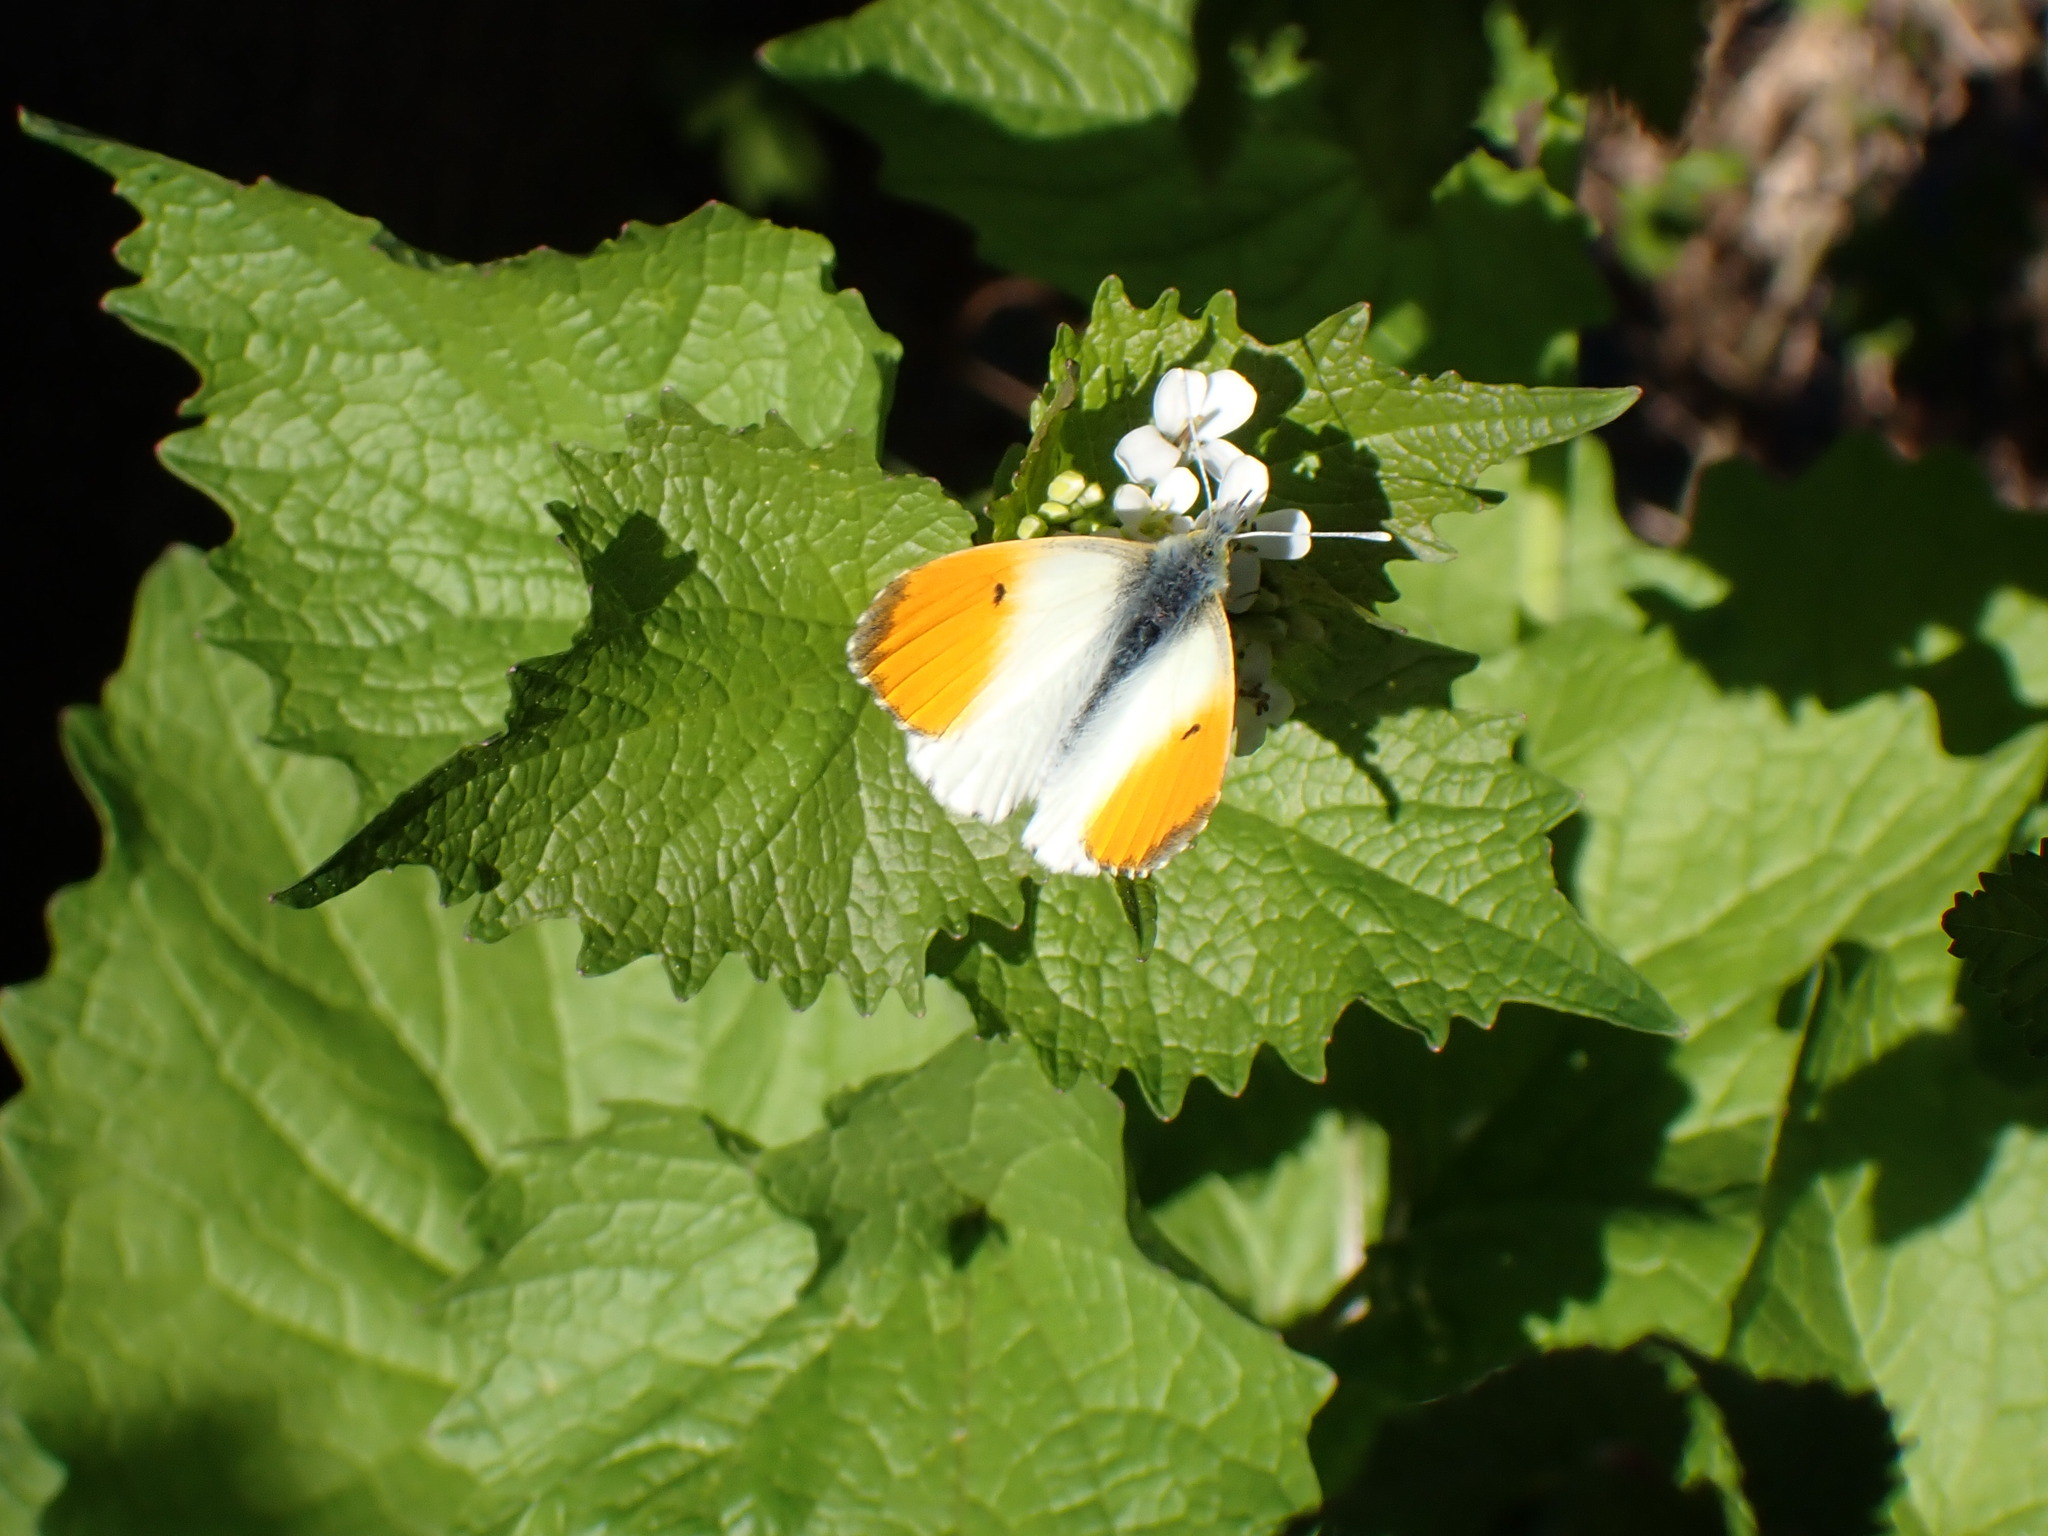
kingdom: Animalia
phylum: Arthropoda
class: Insecta
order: Lepidoptera
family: Pieridae
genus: Anthocharis
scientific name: Anthocharis cardamines
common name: Orange-tip
